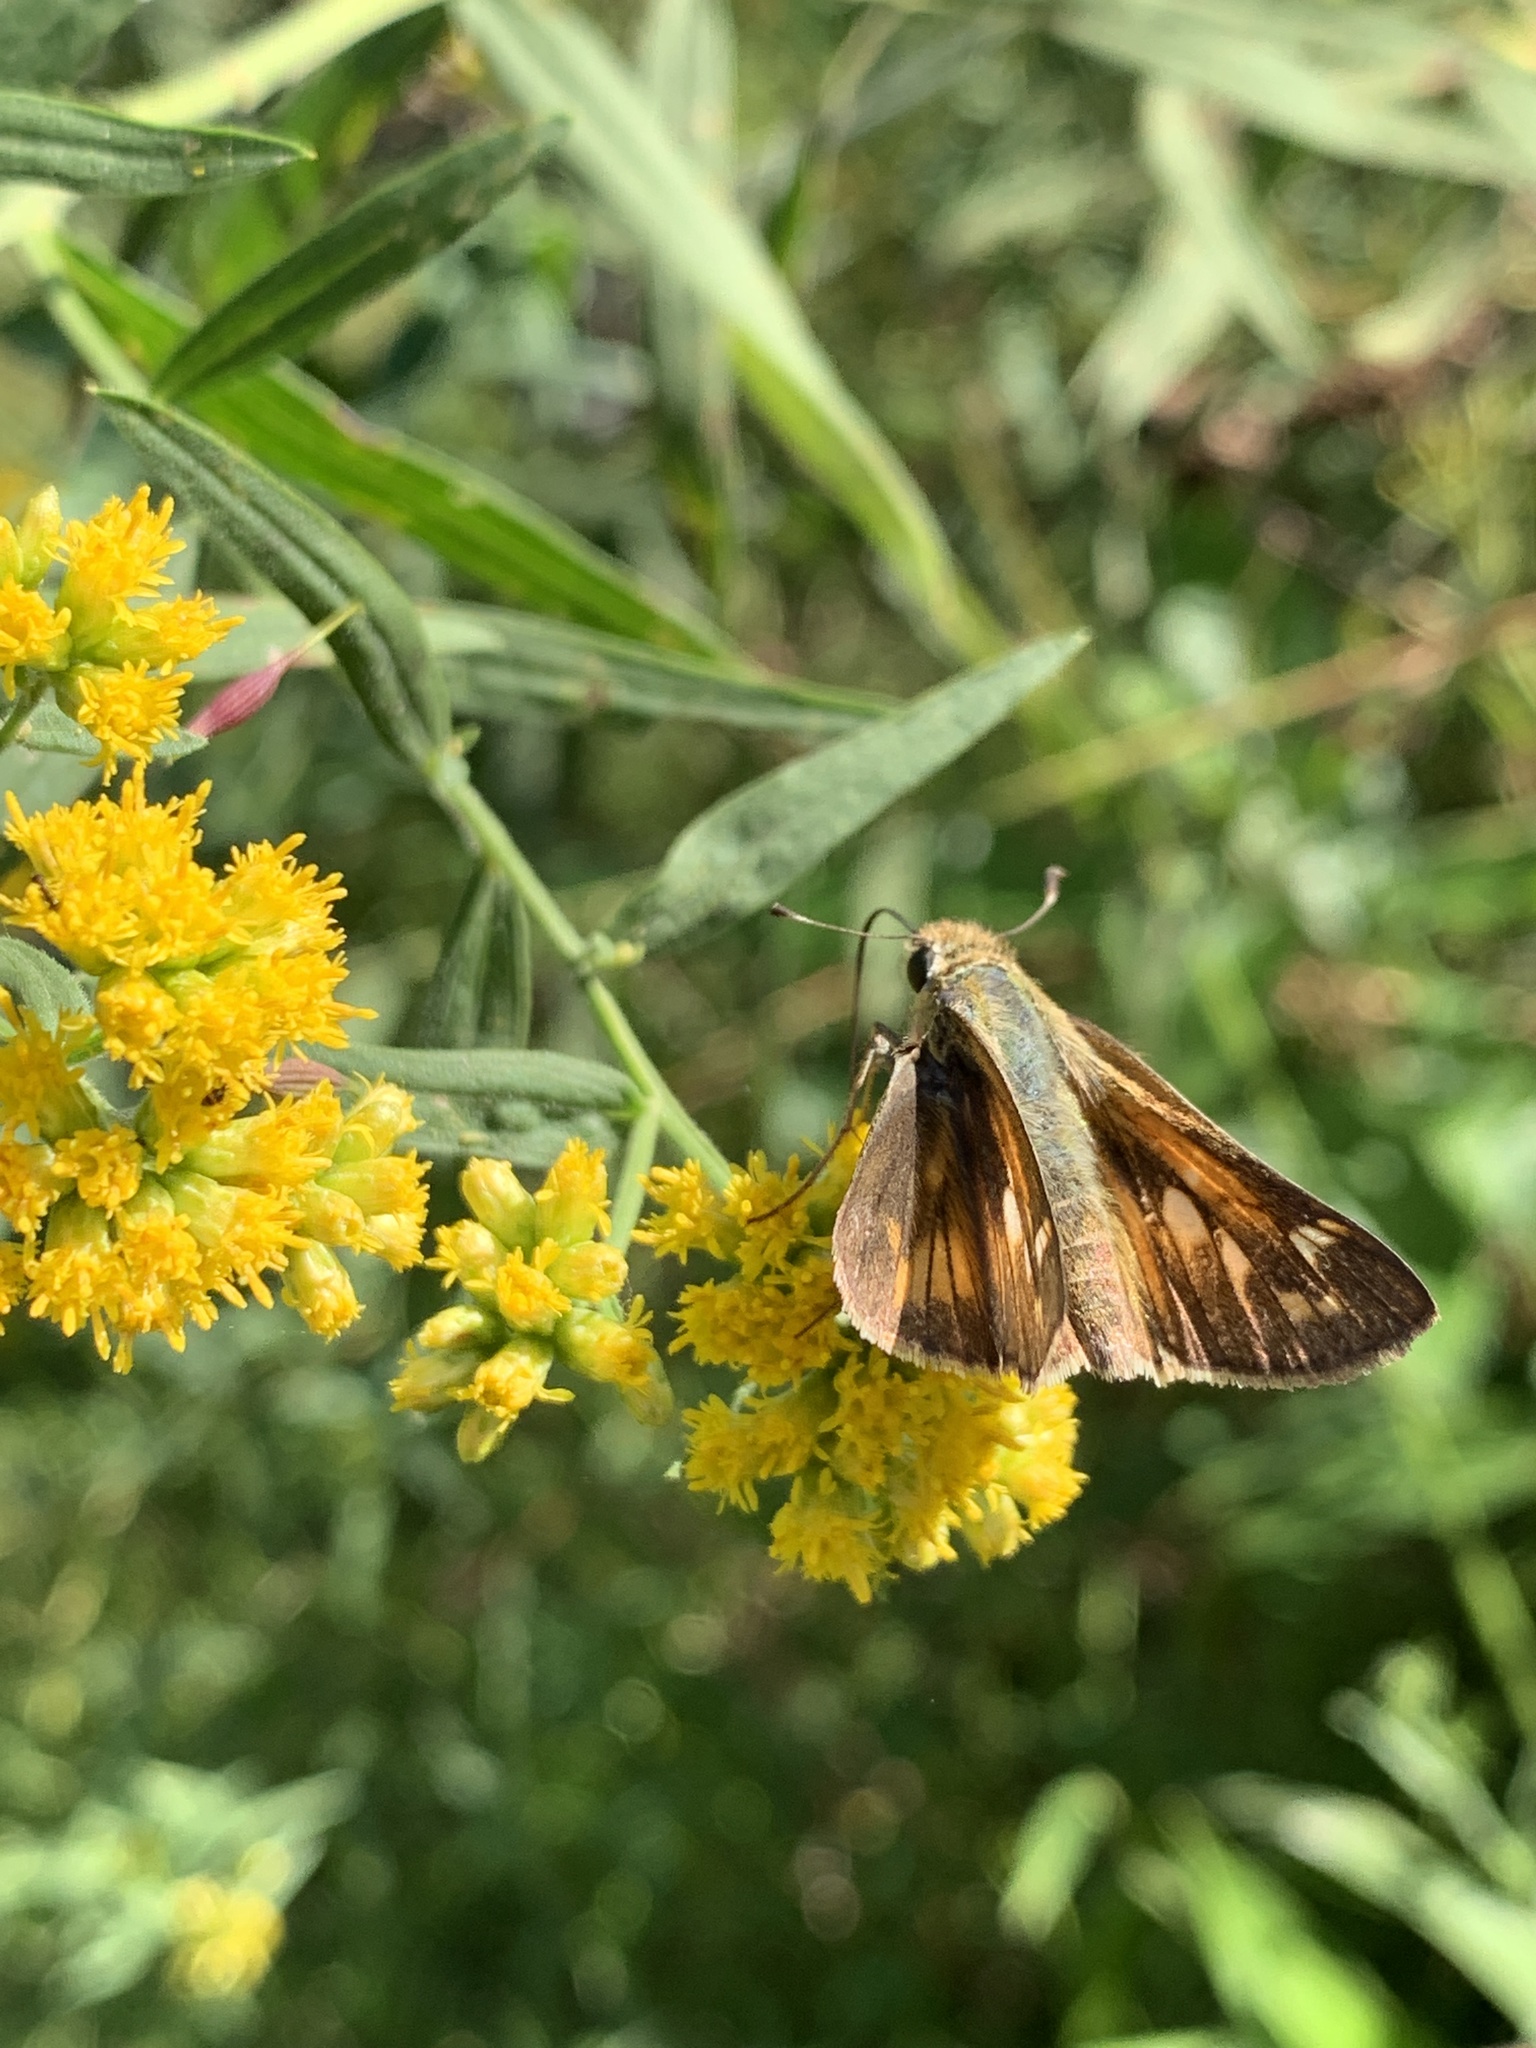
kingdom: Animalia
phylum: Arthropoda
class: Insecta
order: Lepidoptera
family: Hesperiidae
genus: Atalopedes
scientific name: Atalopedes
